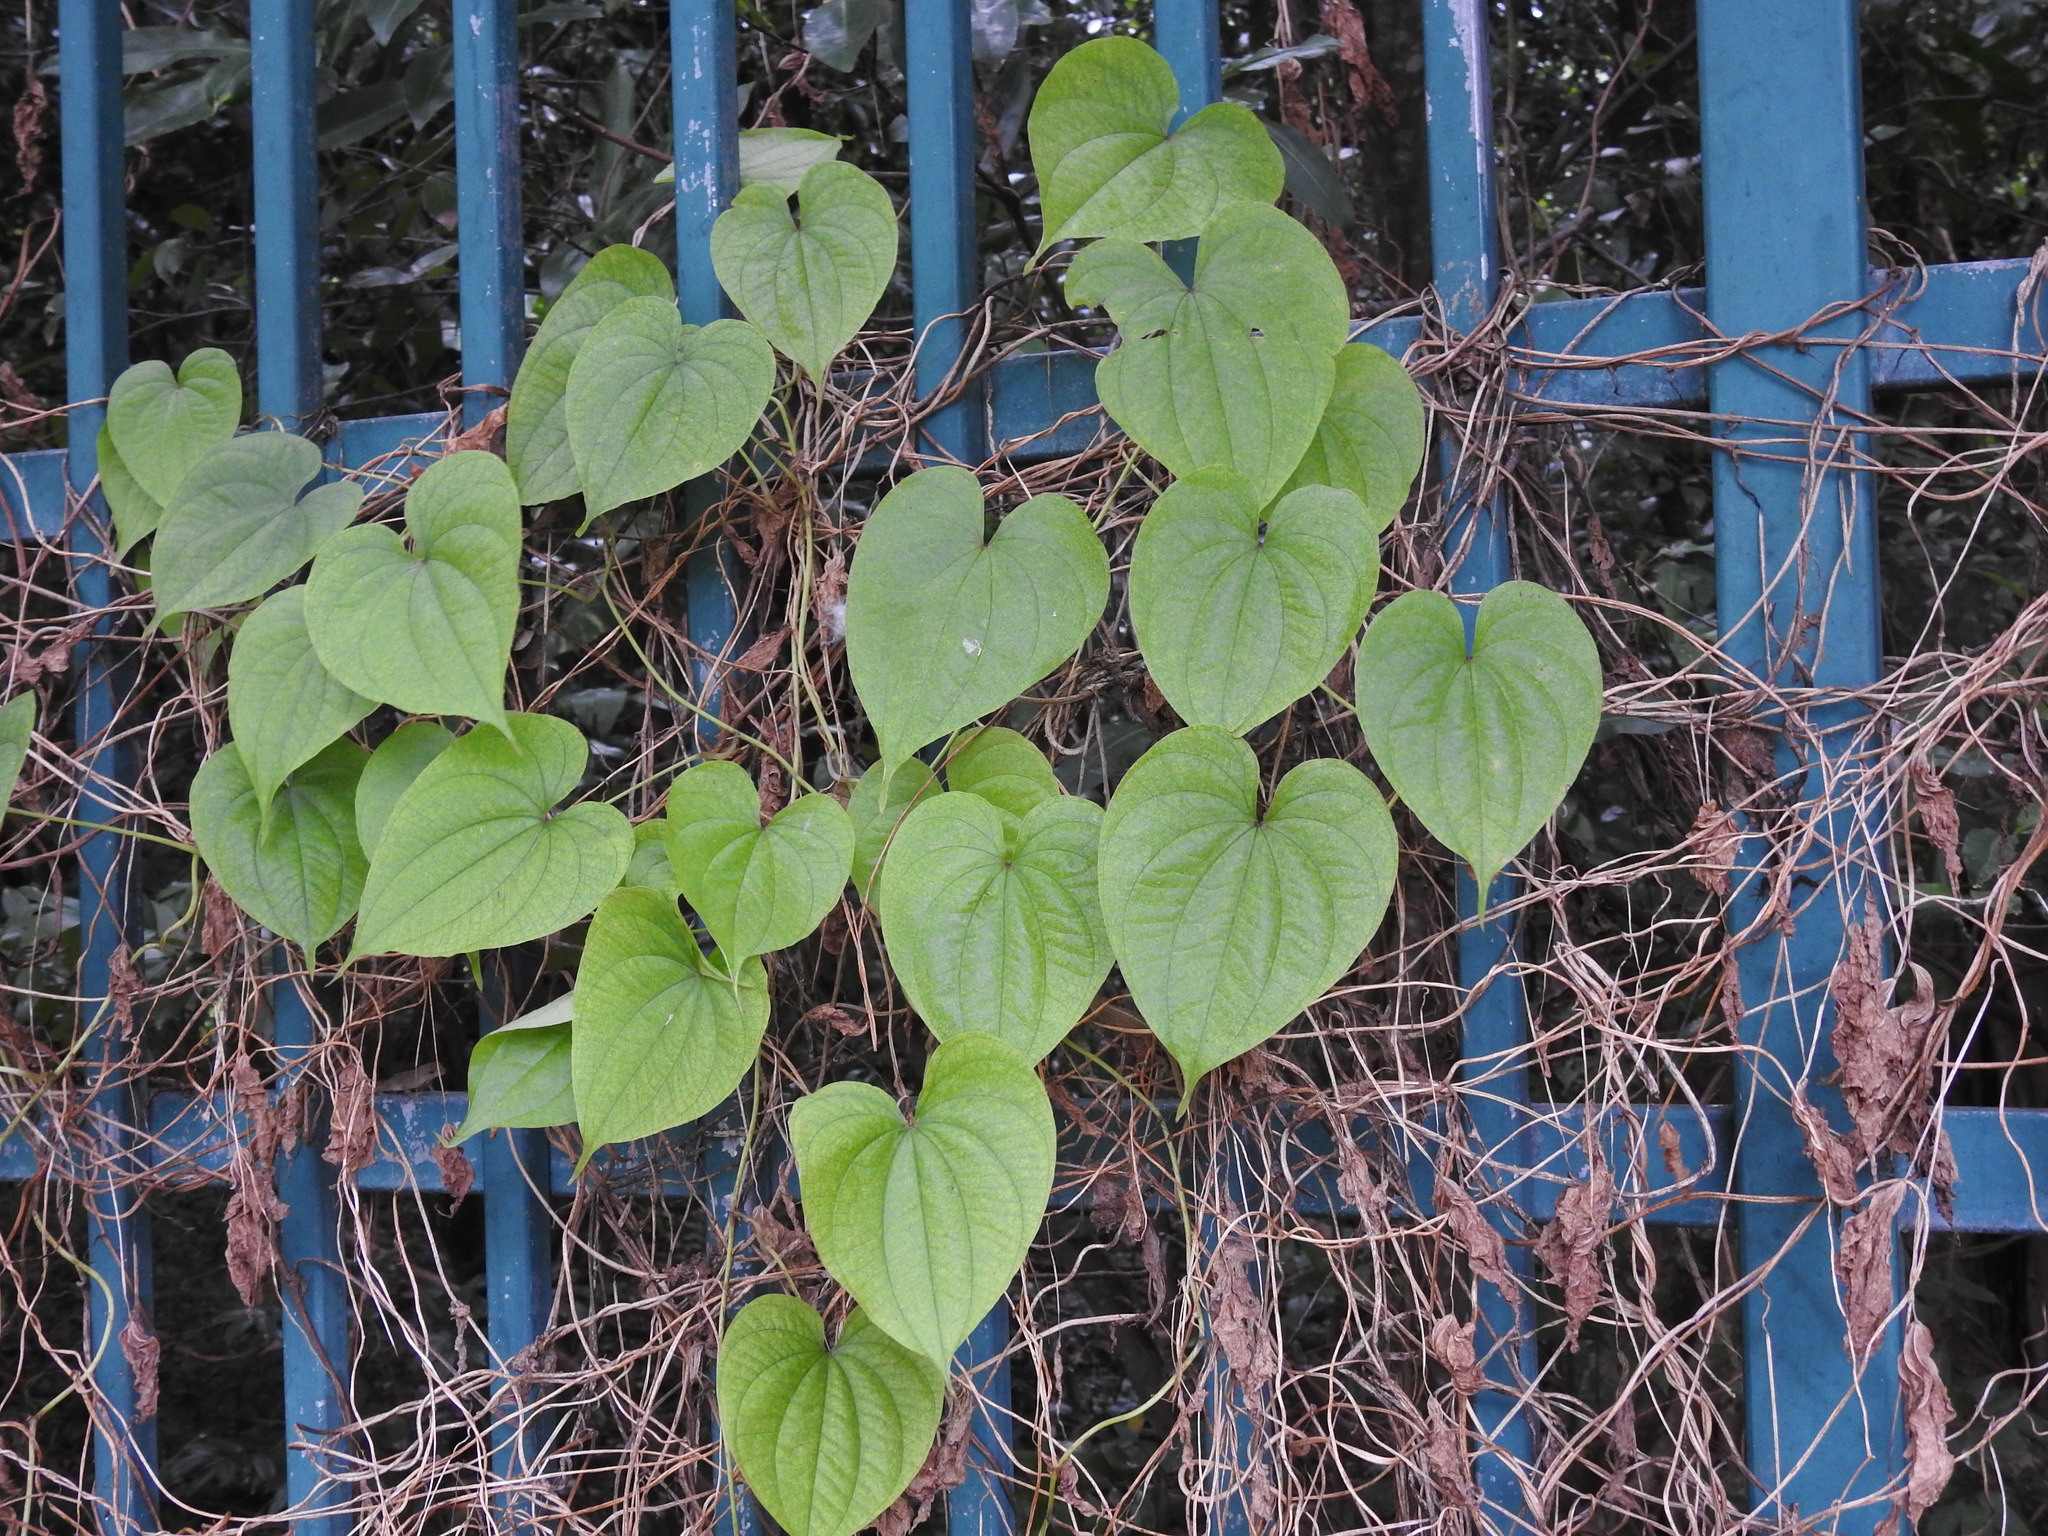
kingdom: Plantae
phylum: Tracheophyta
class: Liliopsida
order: Dioscoreales
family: Dioscoreaceae
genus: Dioscorea
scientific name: Dioscorea bulbifera
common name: Air yam
